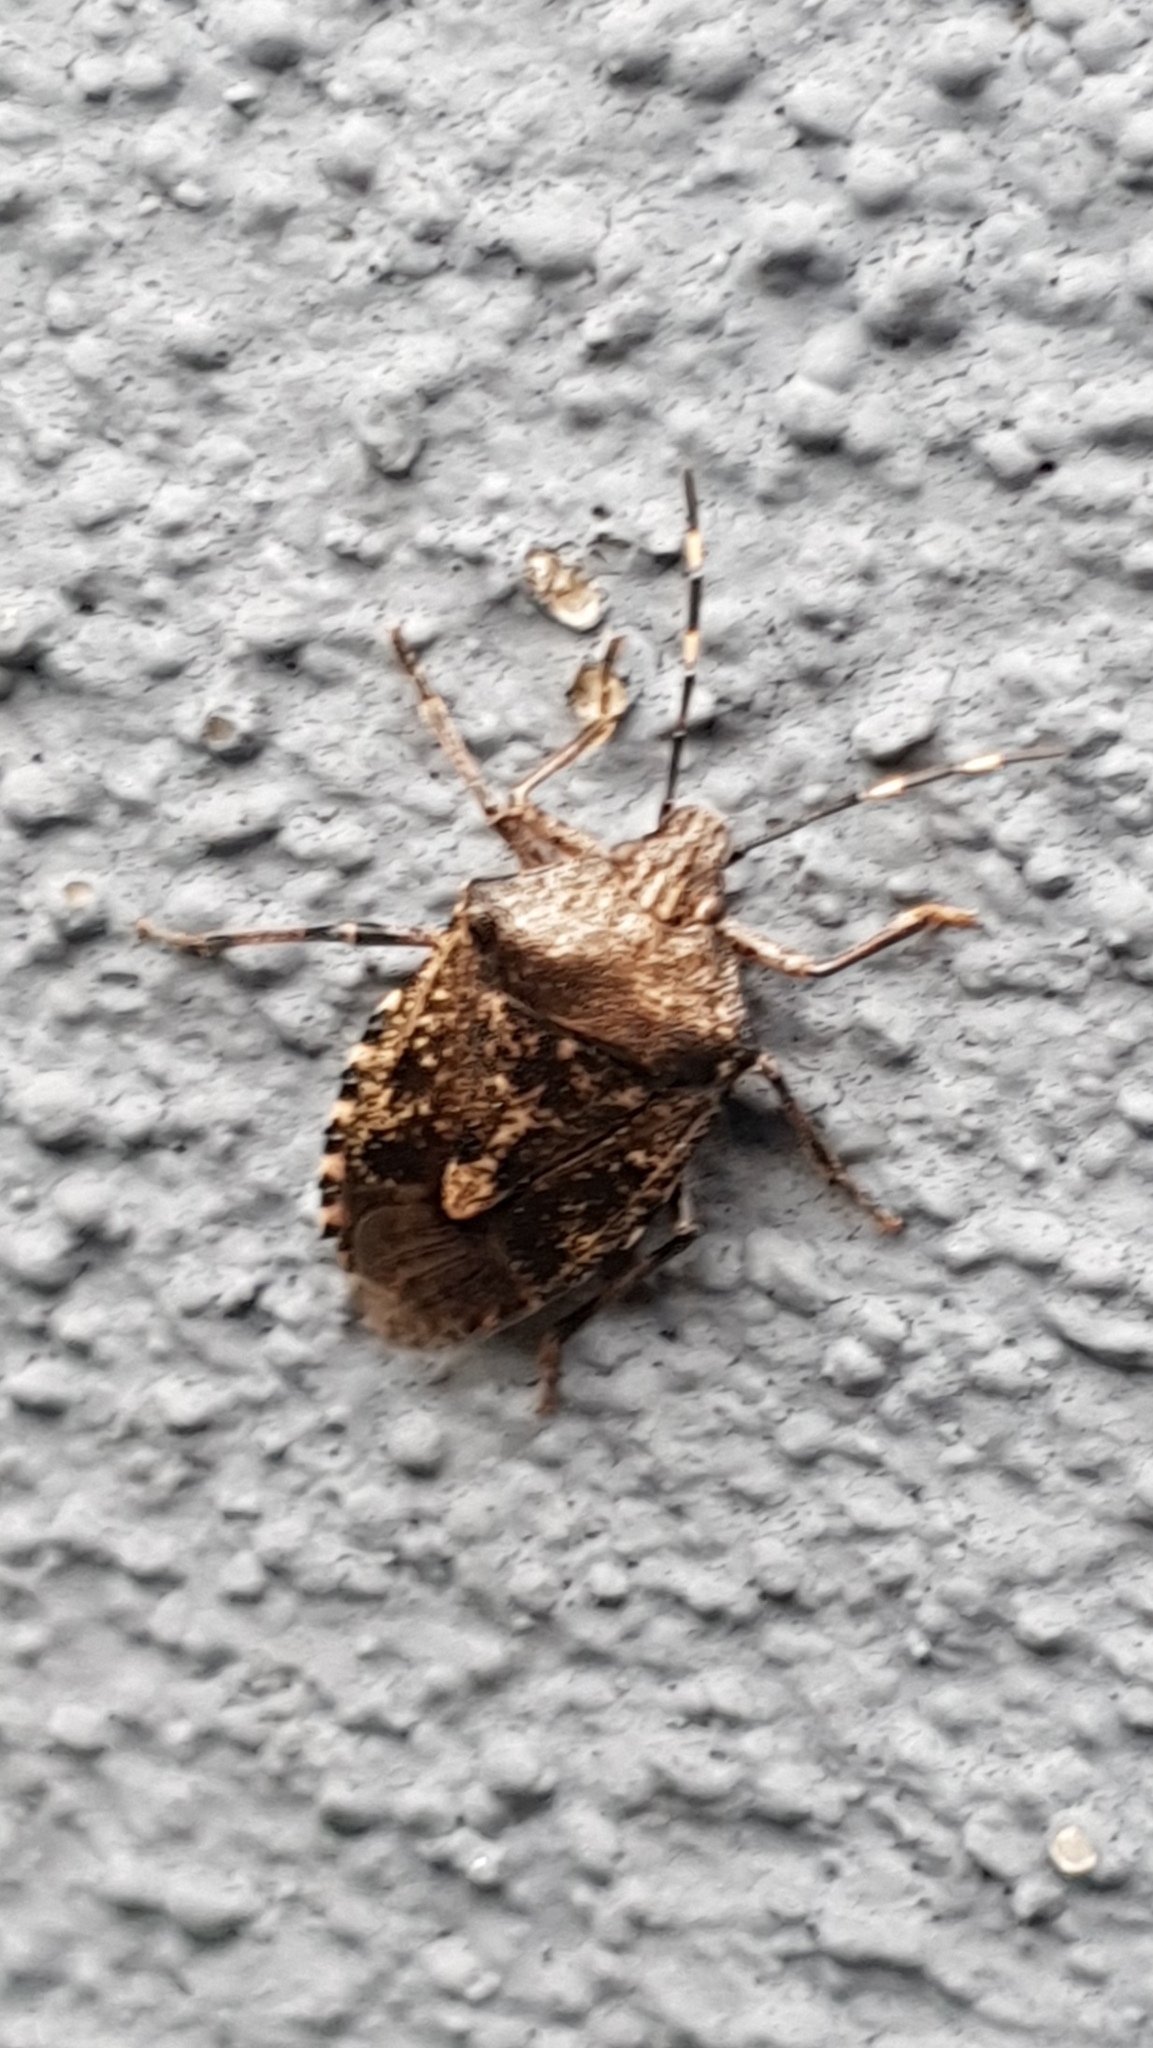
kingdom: Animalia
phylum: Arthropoda
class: Insecta
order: Hemiptera
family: Pentatomidae
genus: Rhaphigaster
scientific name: Rhaphigaster nebulosa
